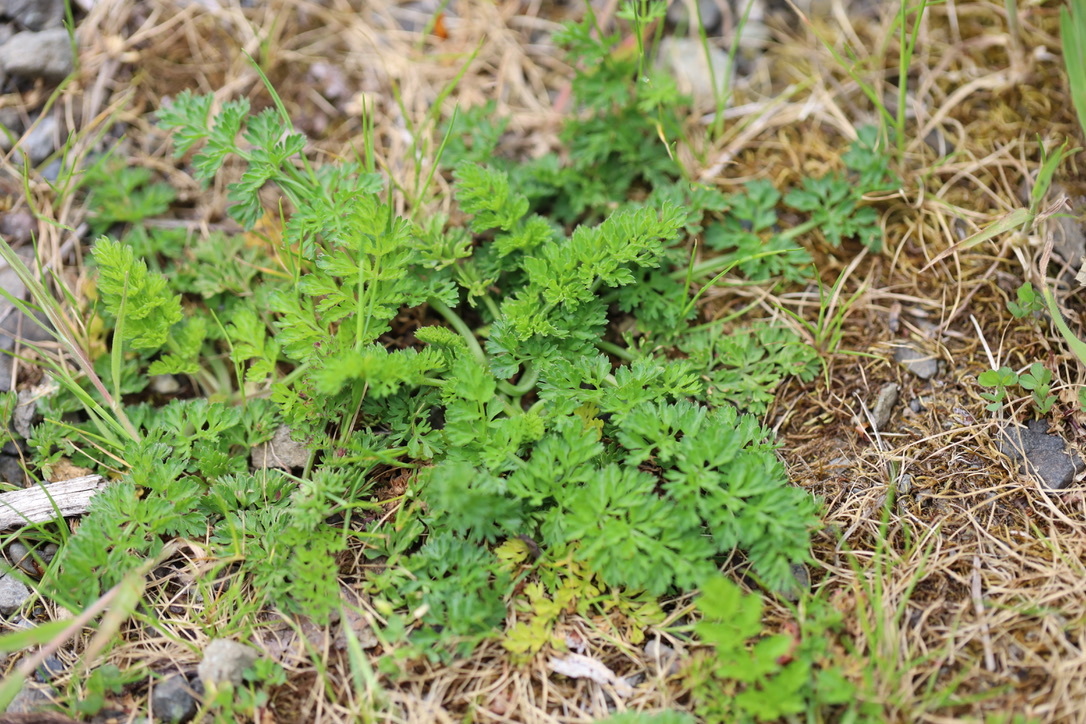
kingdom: Plantae
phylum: Tracheophyta
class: Magnoliopsida
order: Apiales
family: Apiaceae
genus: Daucus
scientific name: Daucus carota
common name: Wild carrot
